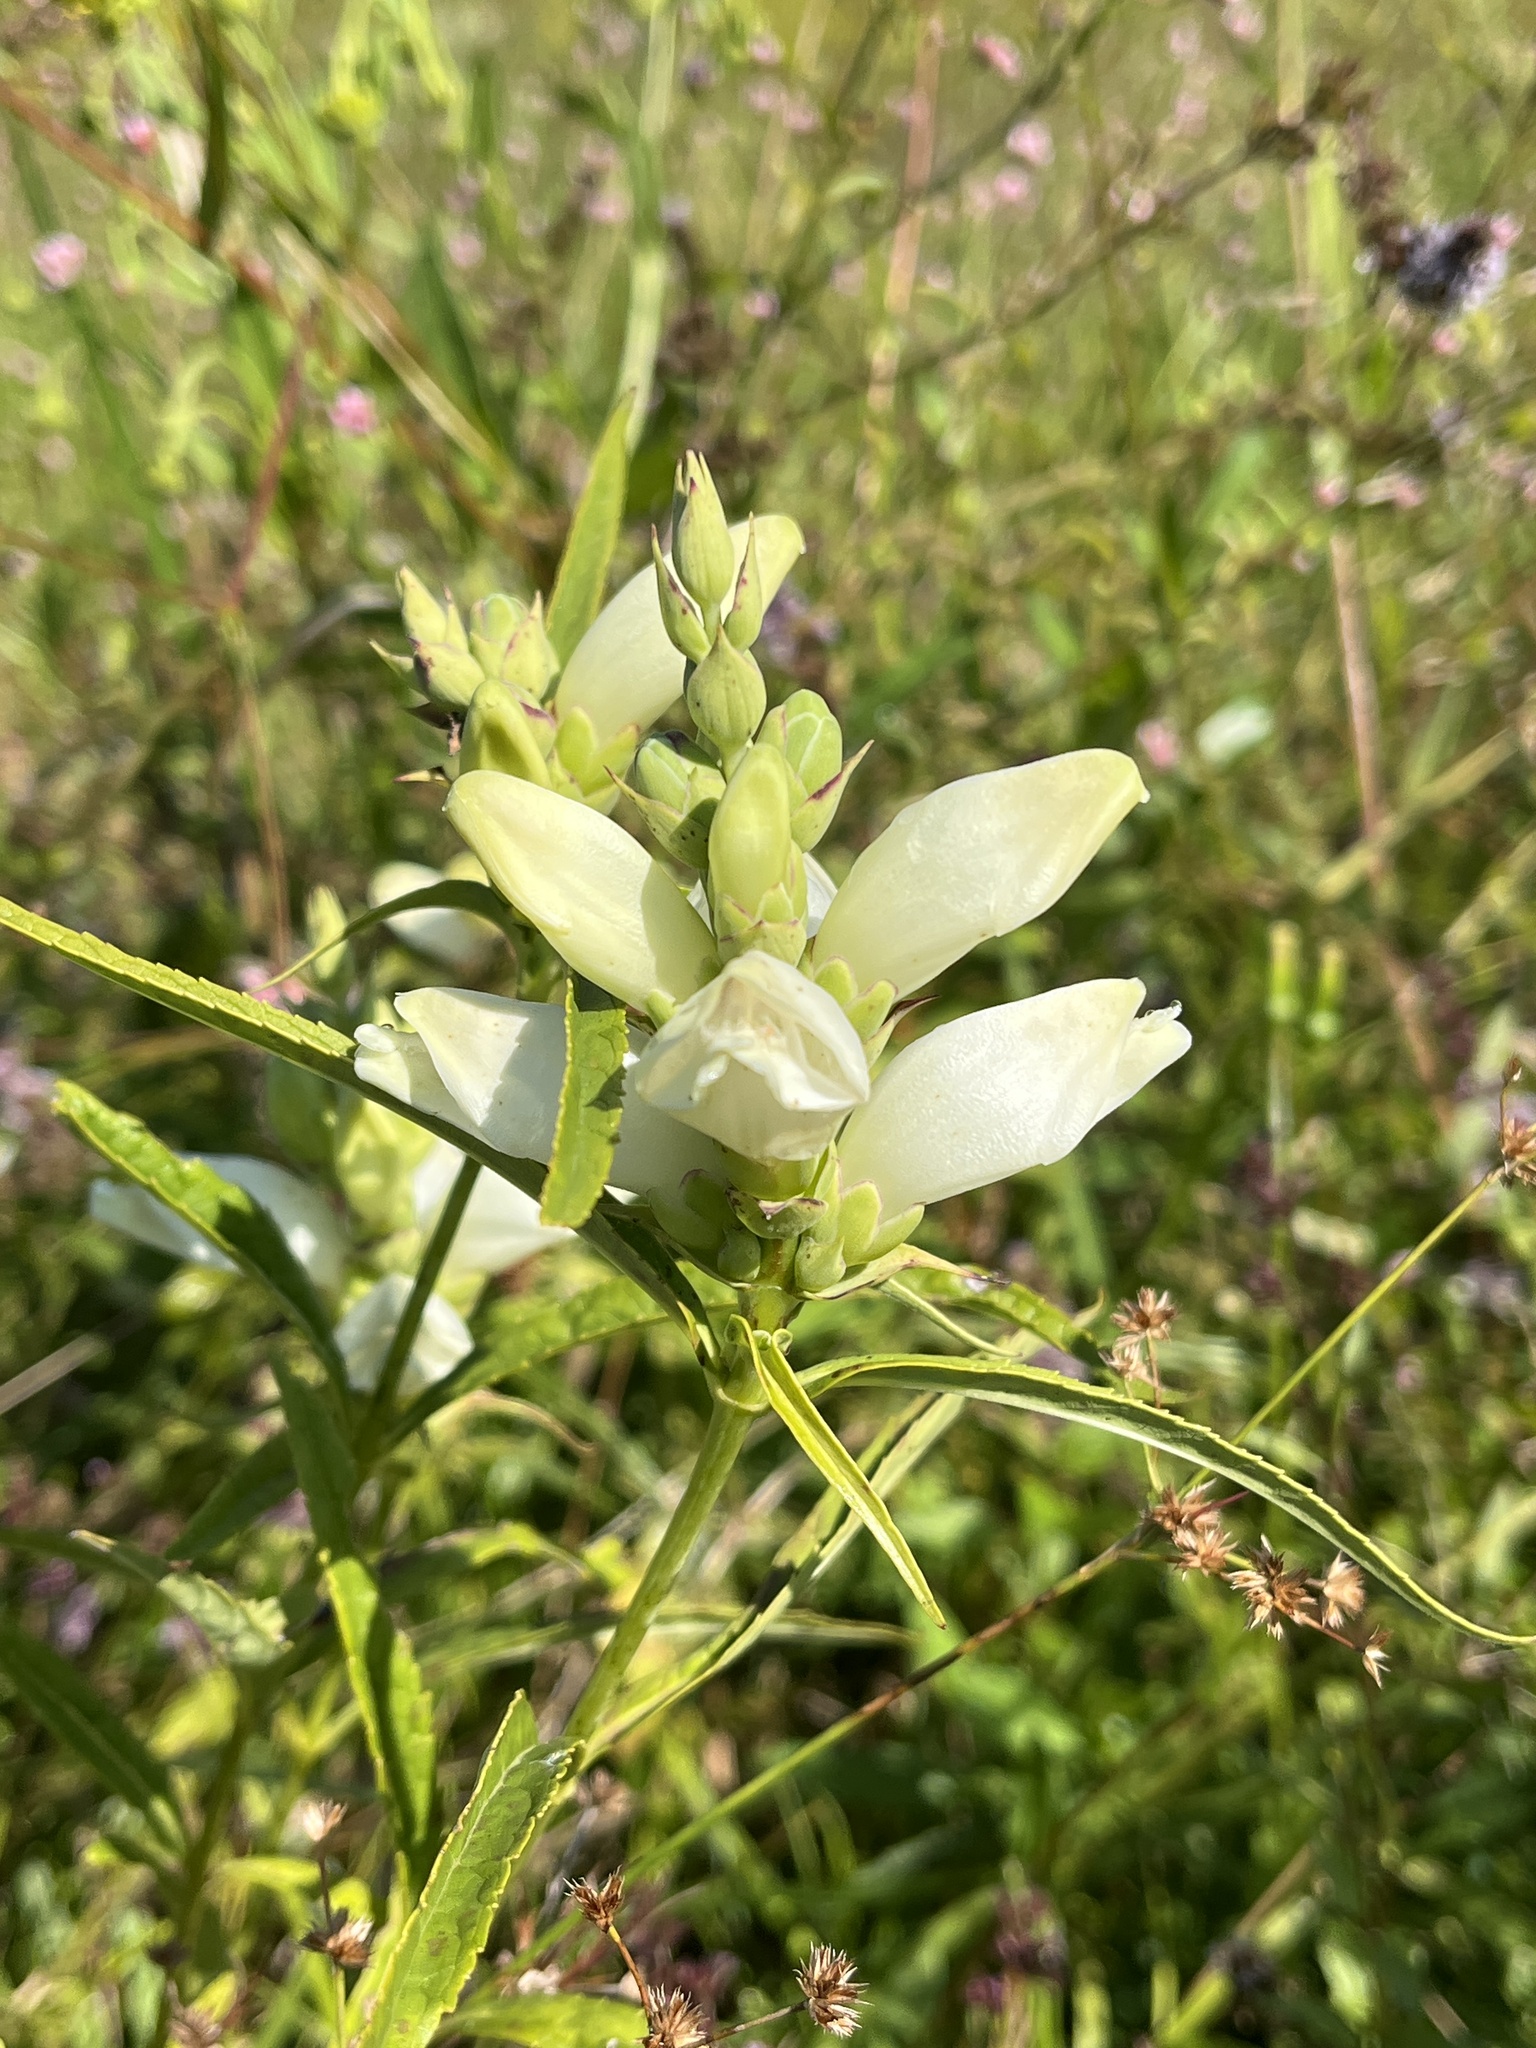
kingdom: Plantae
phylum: Tracheophyta
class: Magnoliopsida
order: Lamiales
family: Plantaginaceae
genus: Chelone
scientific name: Chelone glabra
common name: Snakehead
